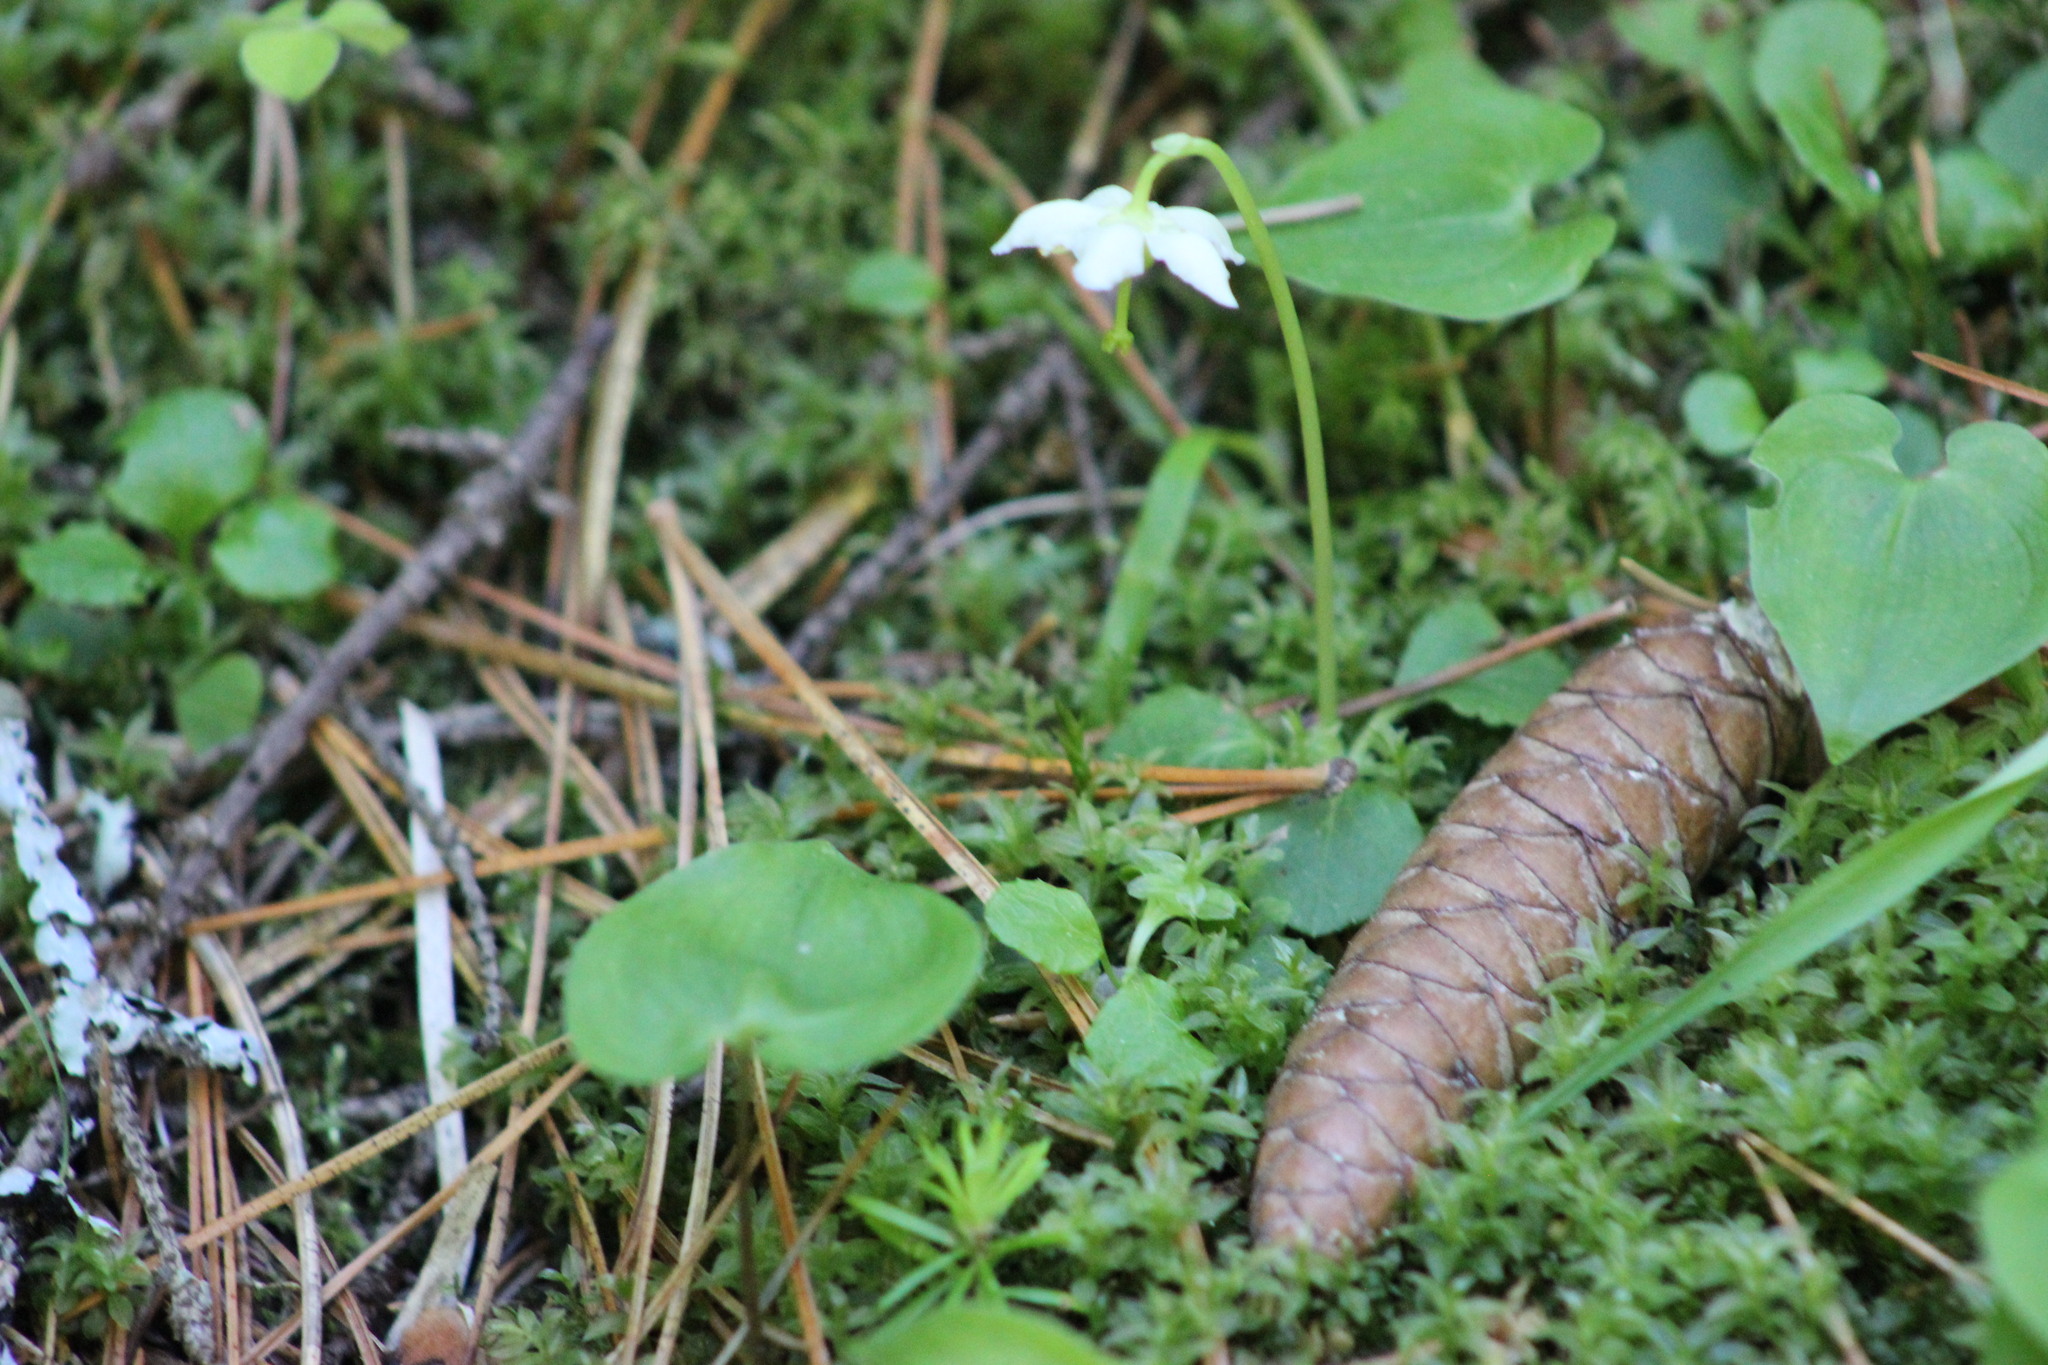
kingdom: Plantae
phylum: Tracheophyta
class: Magnoliopsida
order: Ericales
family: Ericaceae
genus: Moneses
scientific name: Moneses uniflora
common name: One-flowered wintergreen
